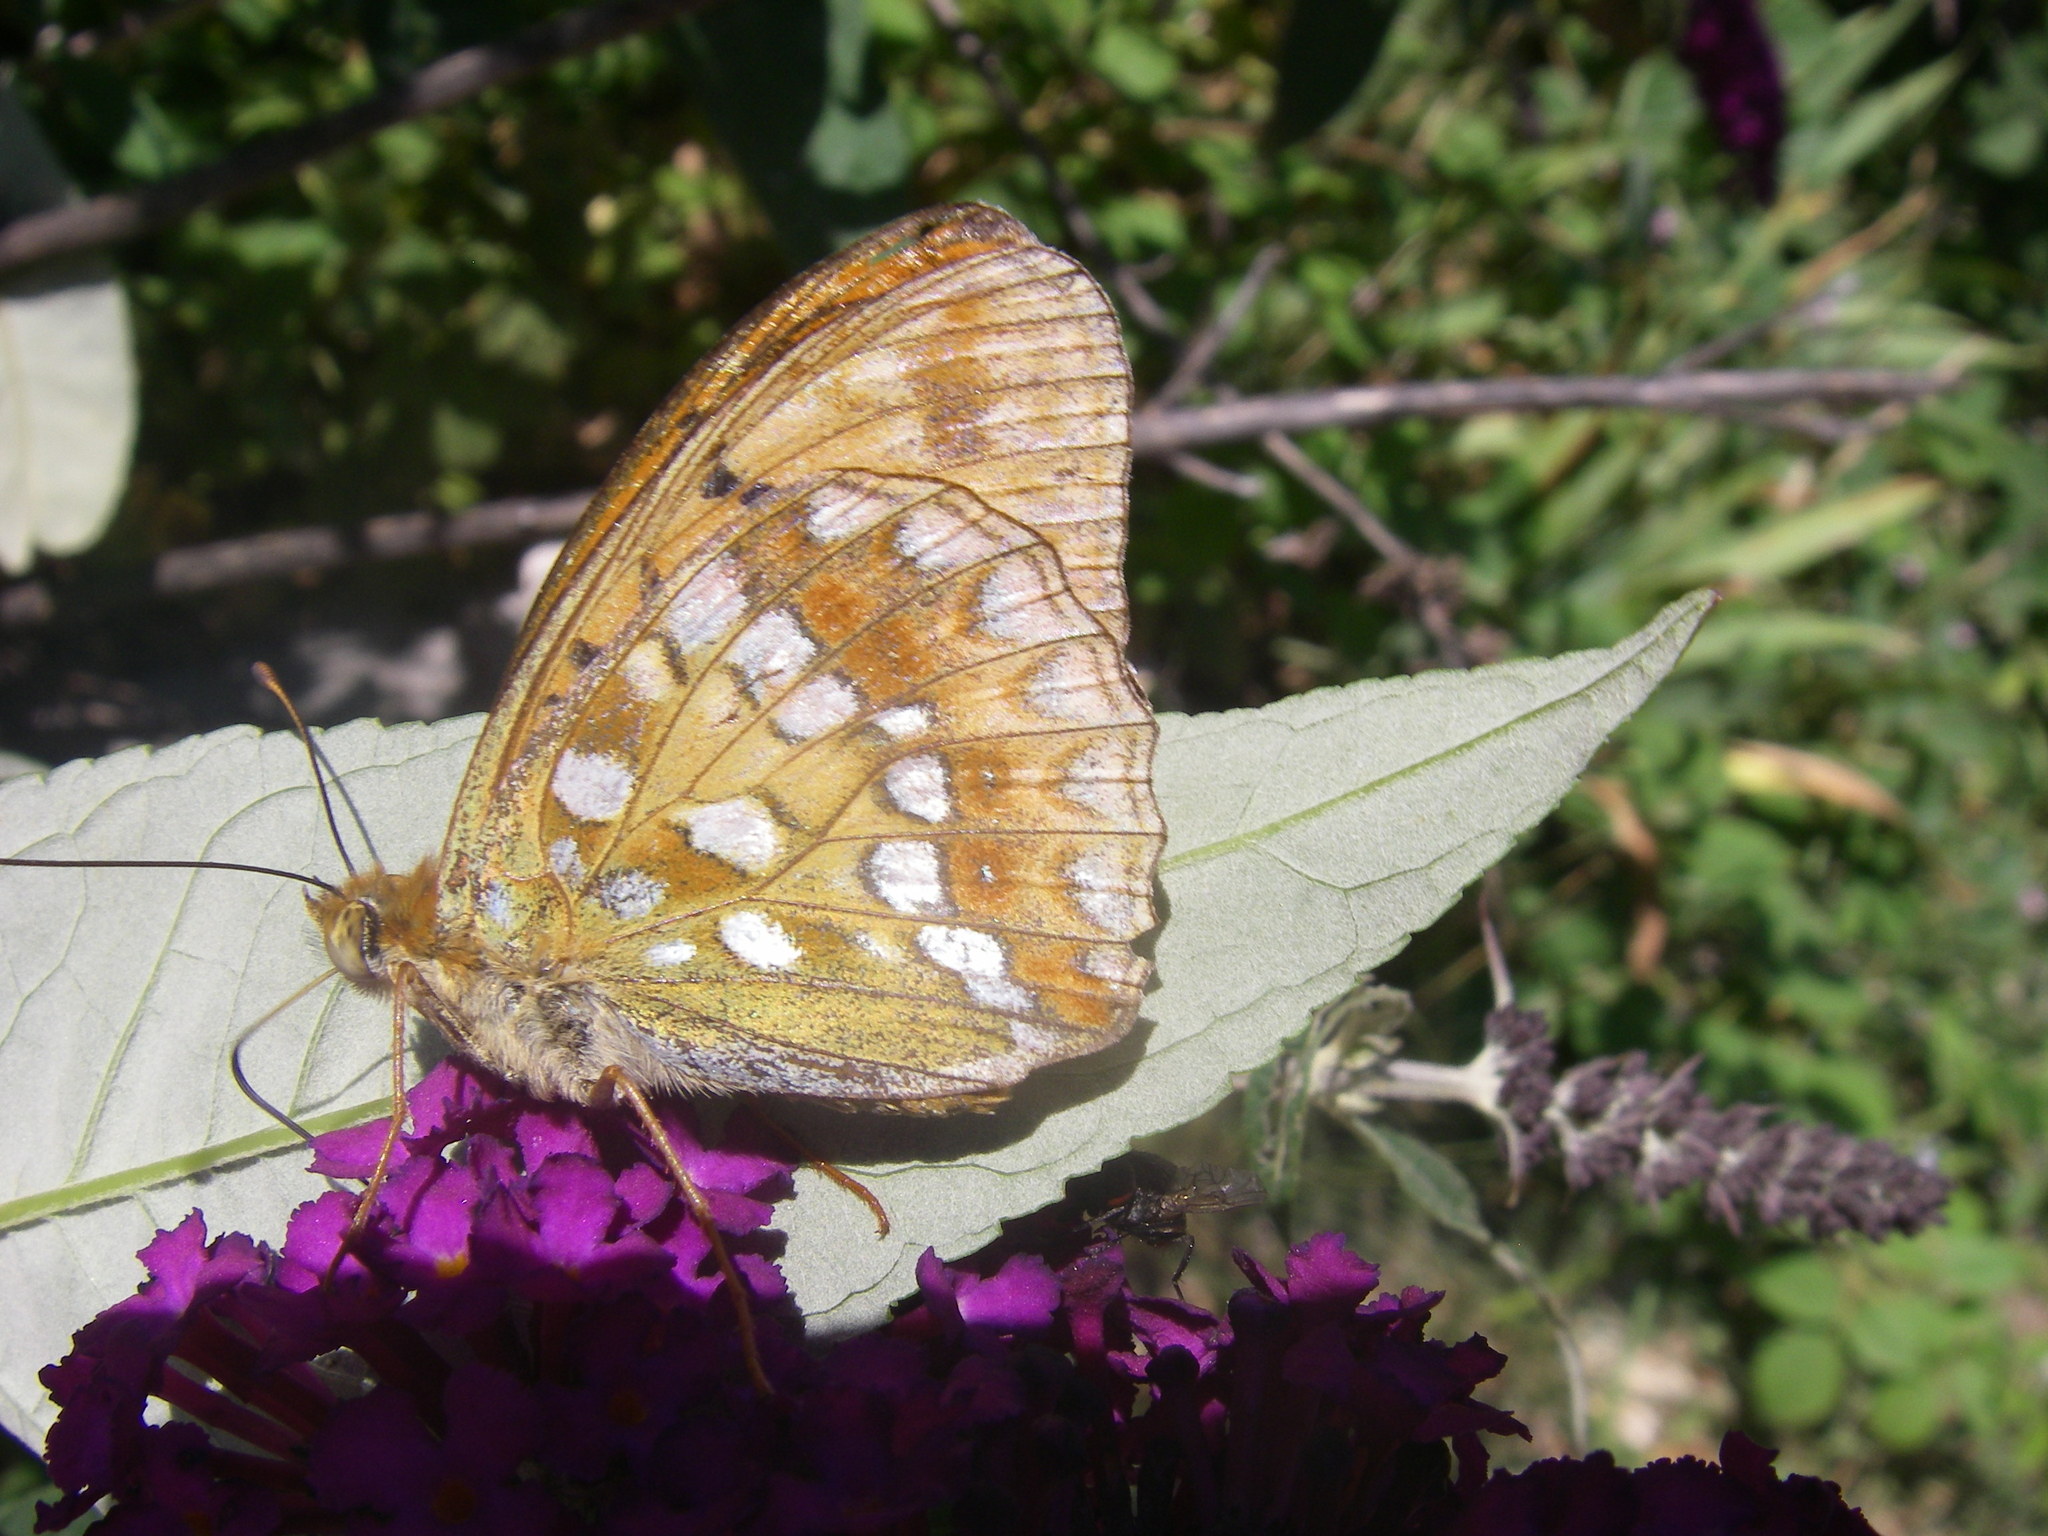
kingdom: Animalia
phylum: Arthropoda
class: Insecta
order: Lepidoptera
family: Nymphalidae
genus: Fabriciana
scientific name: Fabriciana adippe
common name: High brown fritillary
